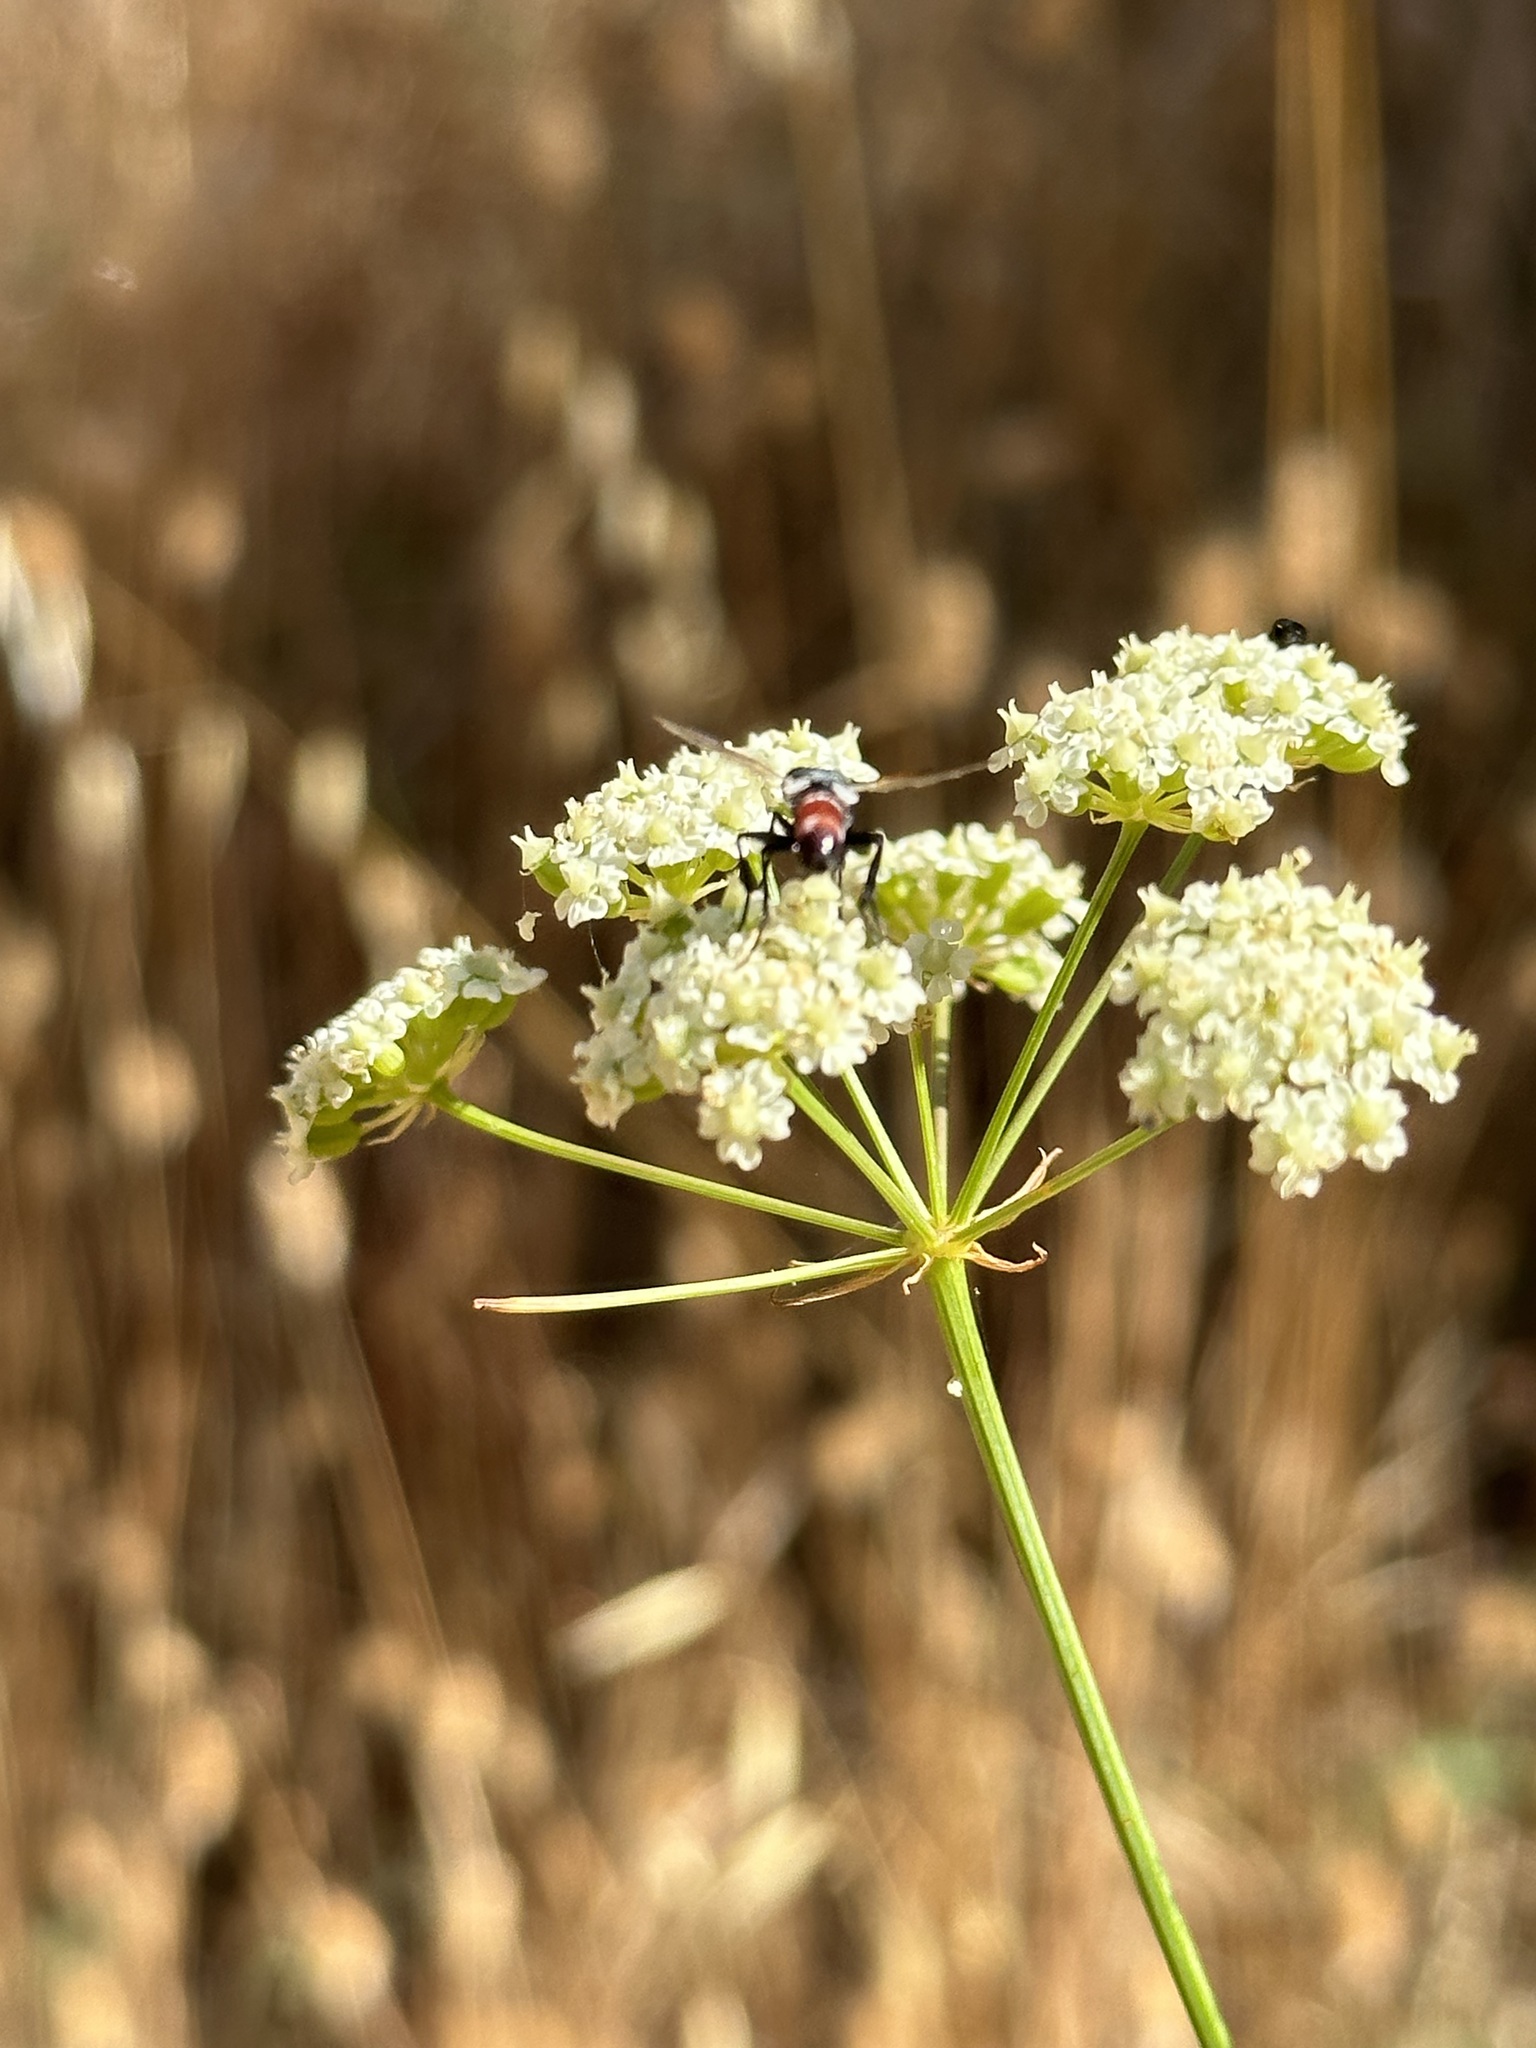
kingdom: Plantae
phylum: Tracheophyta
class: Magnoliopsida
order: Apiales
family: Apiaceae
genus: Perideridia
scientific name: Perideridia kelloggii
